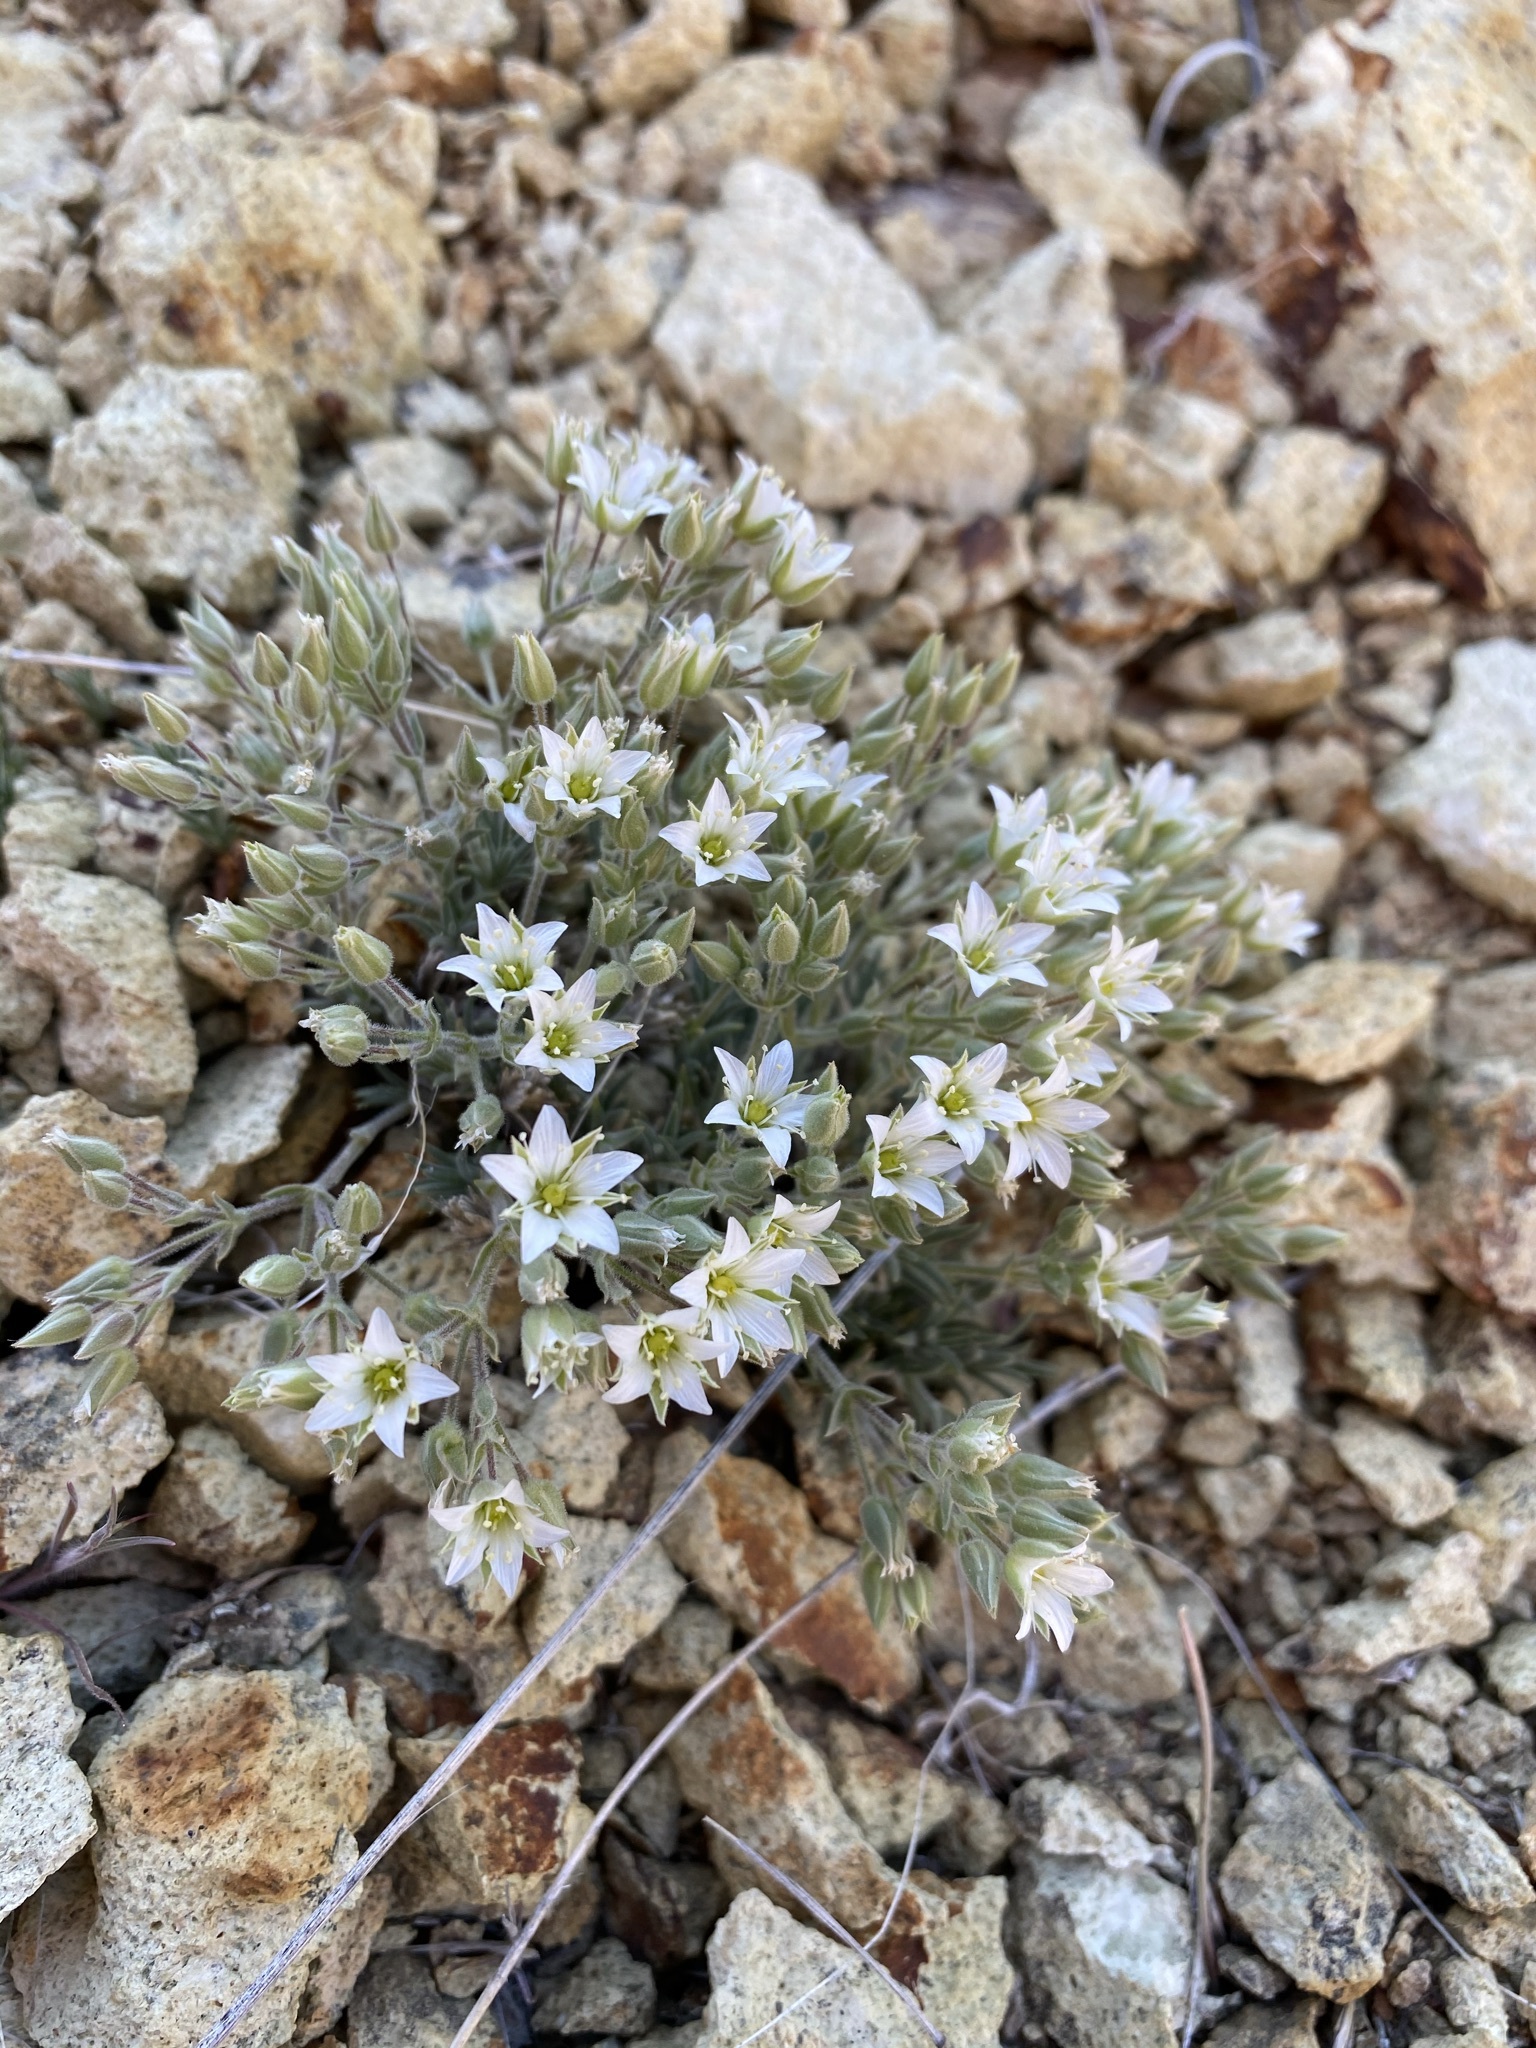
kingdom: Plantae
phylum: Tracheophyta
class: Magnoliopsida
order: Caryophyllales
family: Caryophyllaceae
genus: Sabulina
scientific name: Sabulina nuttallii
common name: Nuttall's stitchwort
